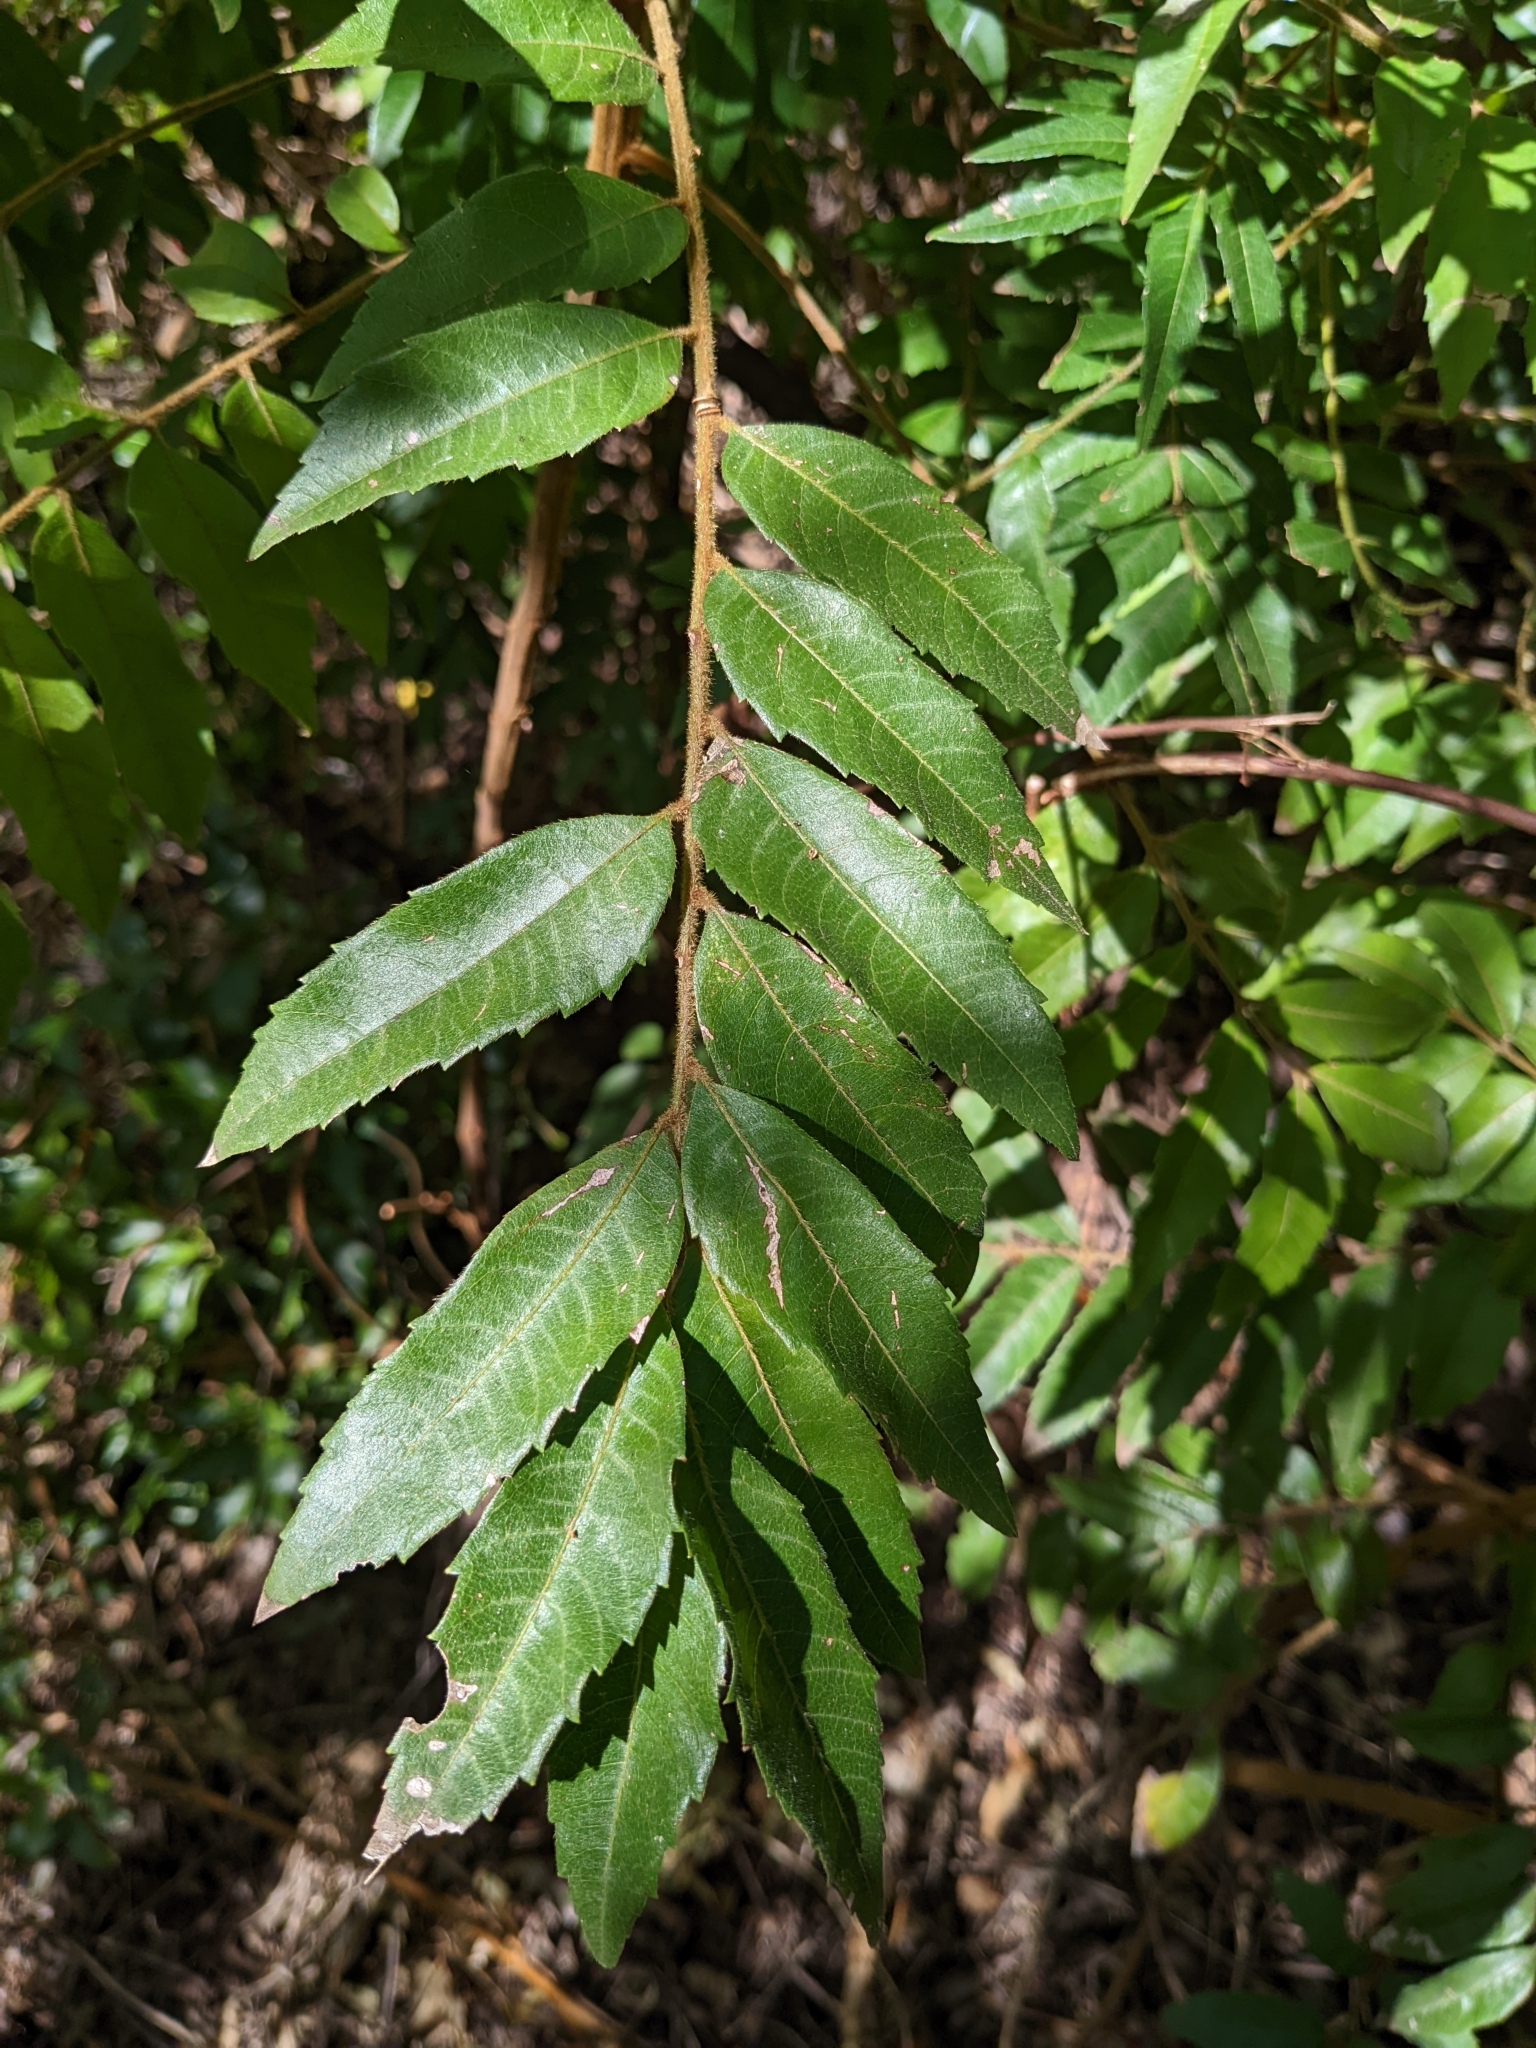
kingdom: Plantae
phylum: Tracheophyta
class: Magnoliopsida
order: Sapindales
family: Sapindaceae
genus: Jagera
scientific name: Jagera pseudorhus
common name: Fern-leaf-tamarind
